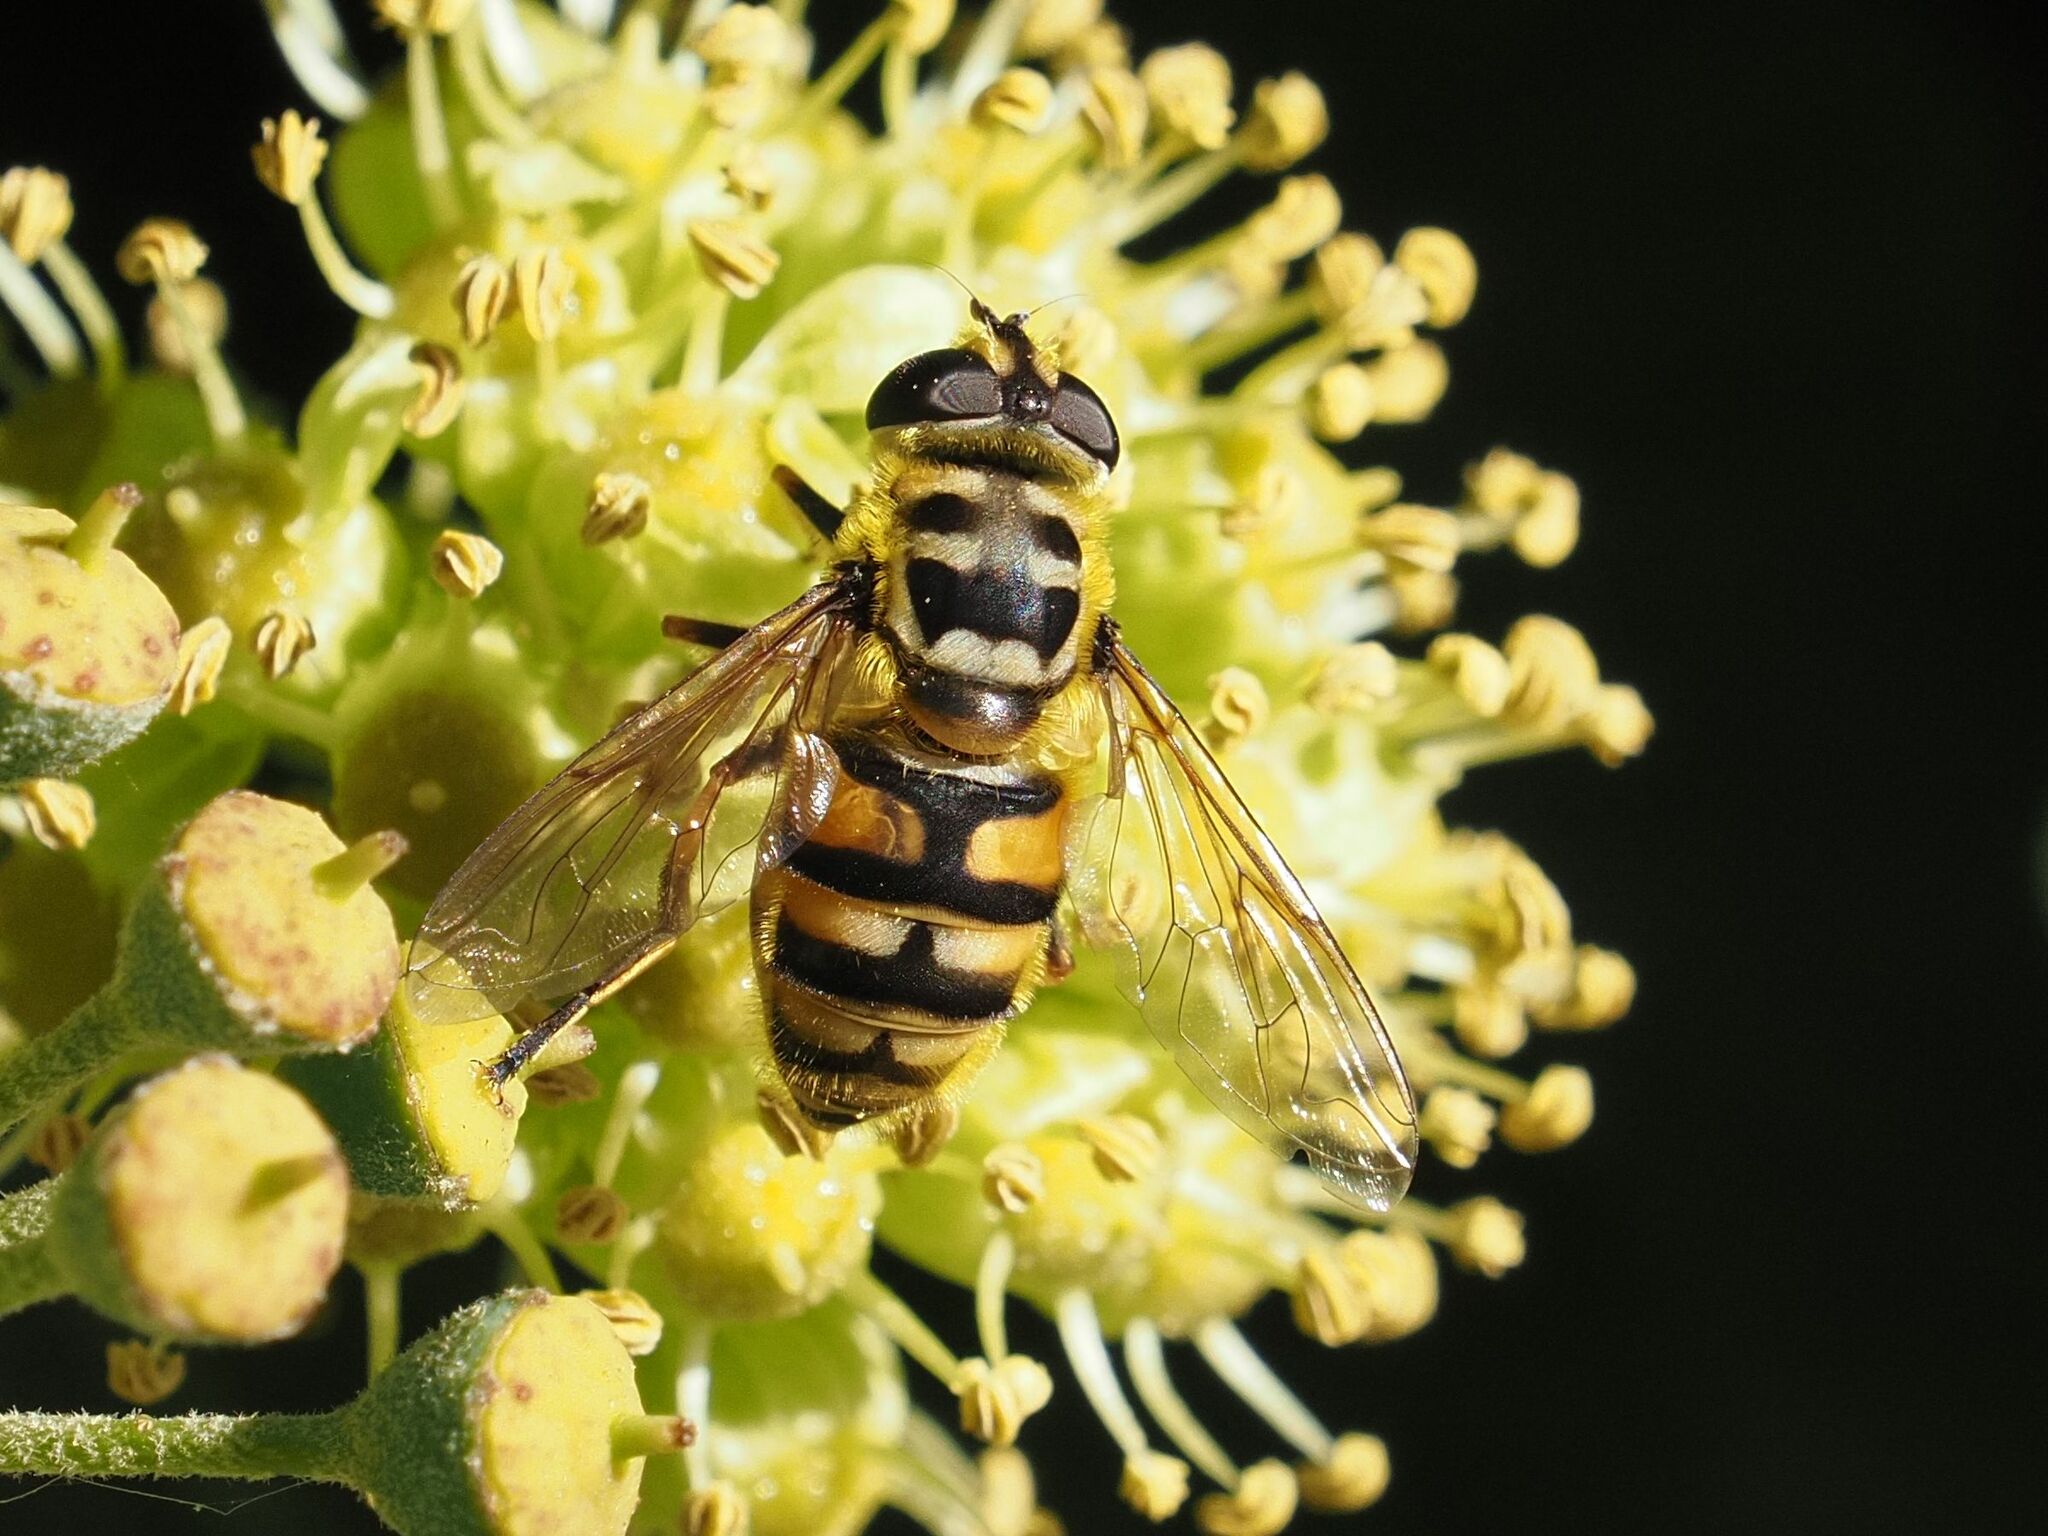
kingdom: Animalia
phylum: Arthropoda
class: Insecta
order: Diptera
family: Syrphidae
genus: Myathropa
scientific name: Myathropa florea
